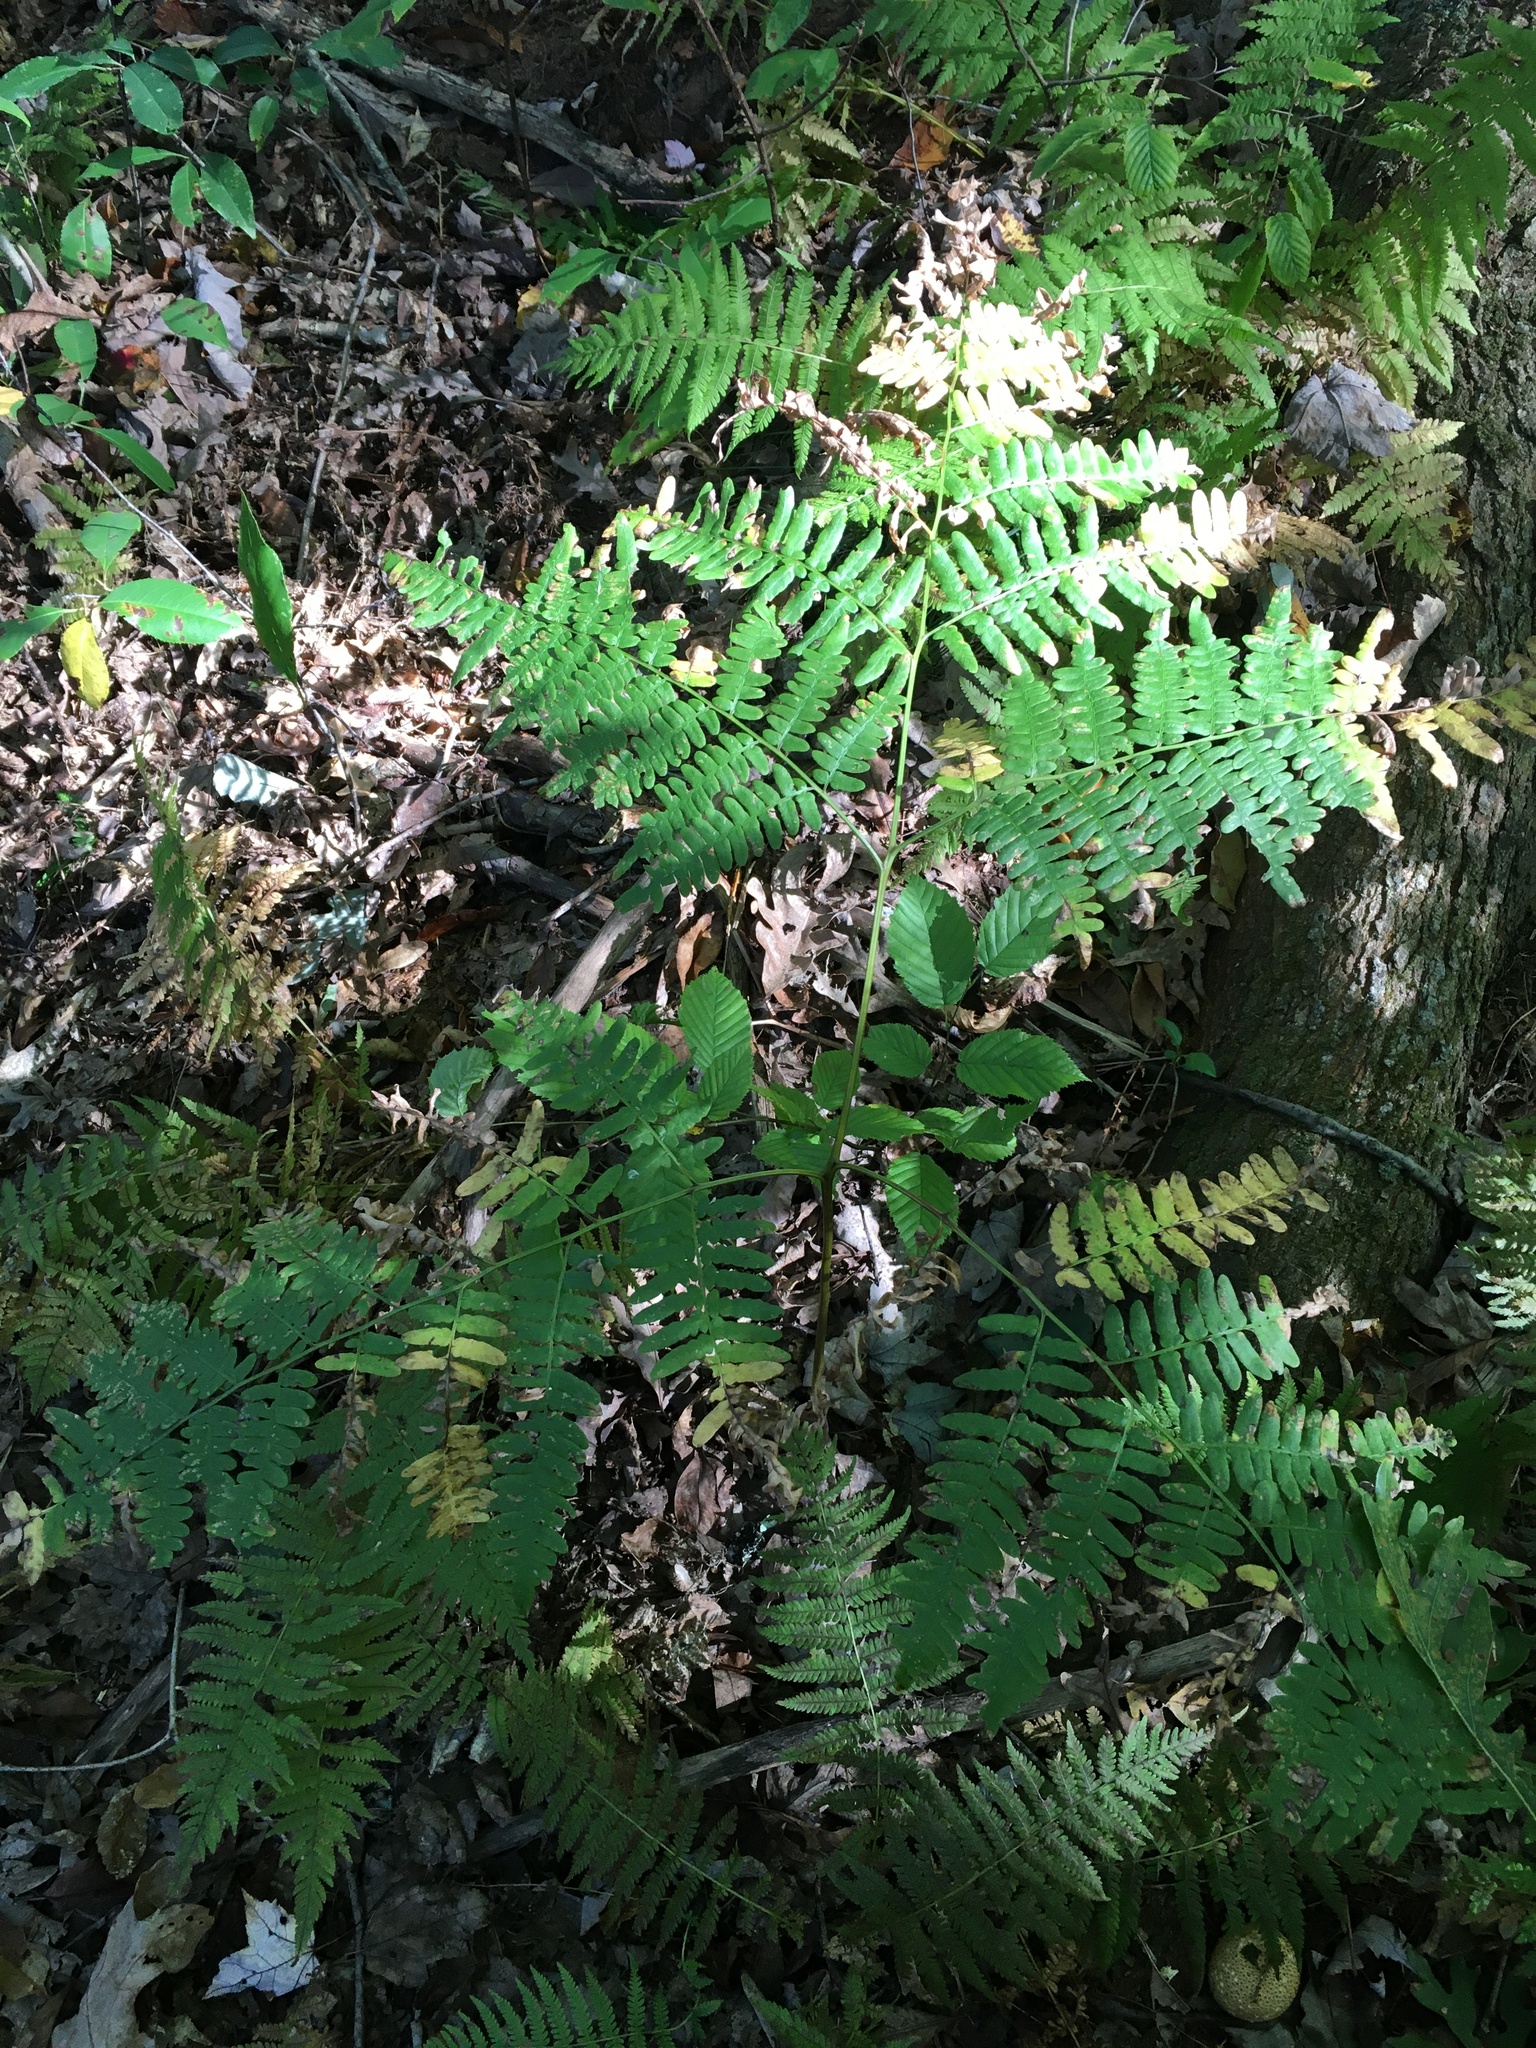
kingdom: Plantae
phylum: Tracheophyta
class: Polypodiopsida
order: Polypodiales
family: Dennstaedtiaceae
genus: Pteridium
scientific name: Pteridium aquilinum
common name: Bracken
